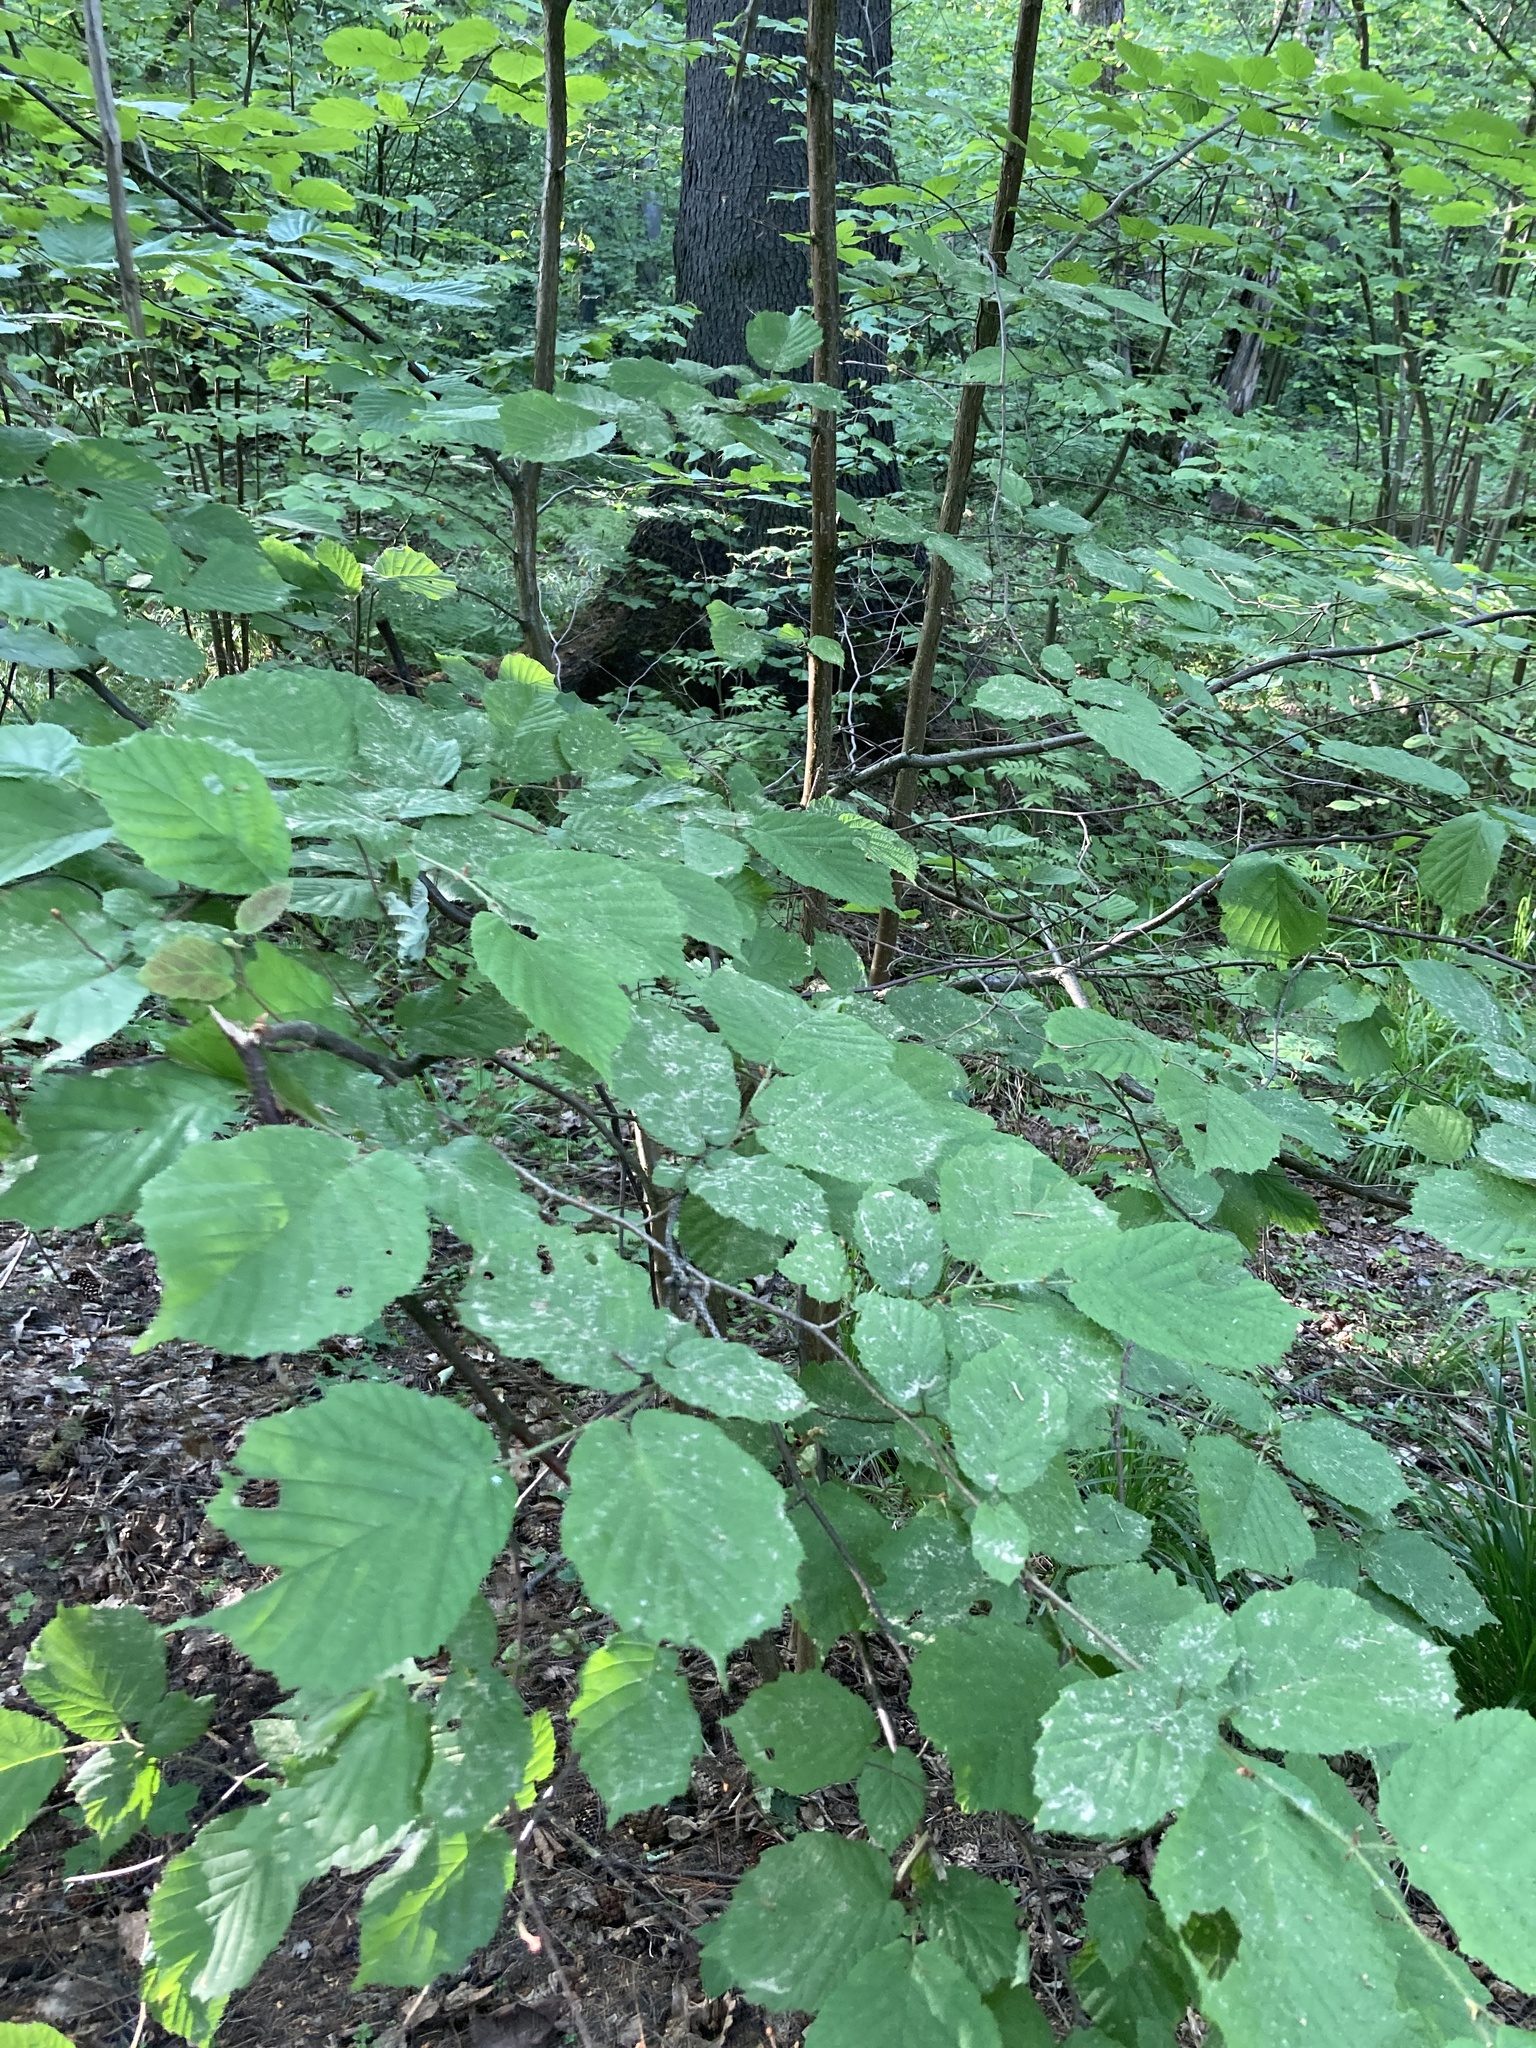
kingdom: Plantae
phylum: Tracheophyta
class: Magnoliopsida
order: Fagales
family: Betulaceae
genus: Corylus
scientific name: Corylus avellana
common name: European hazel
